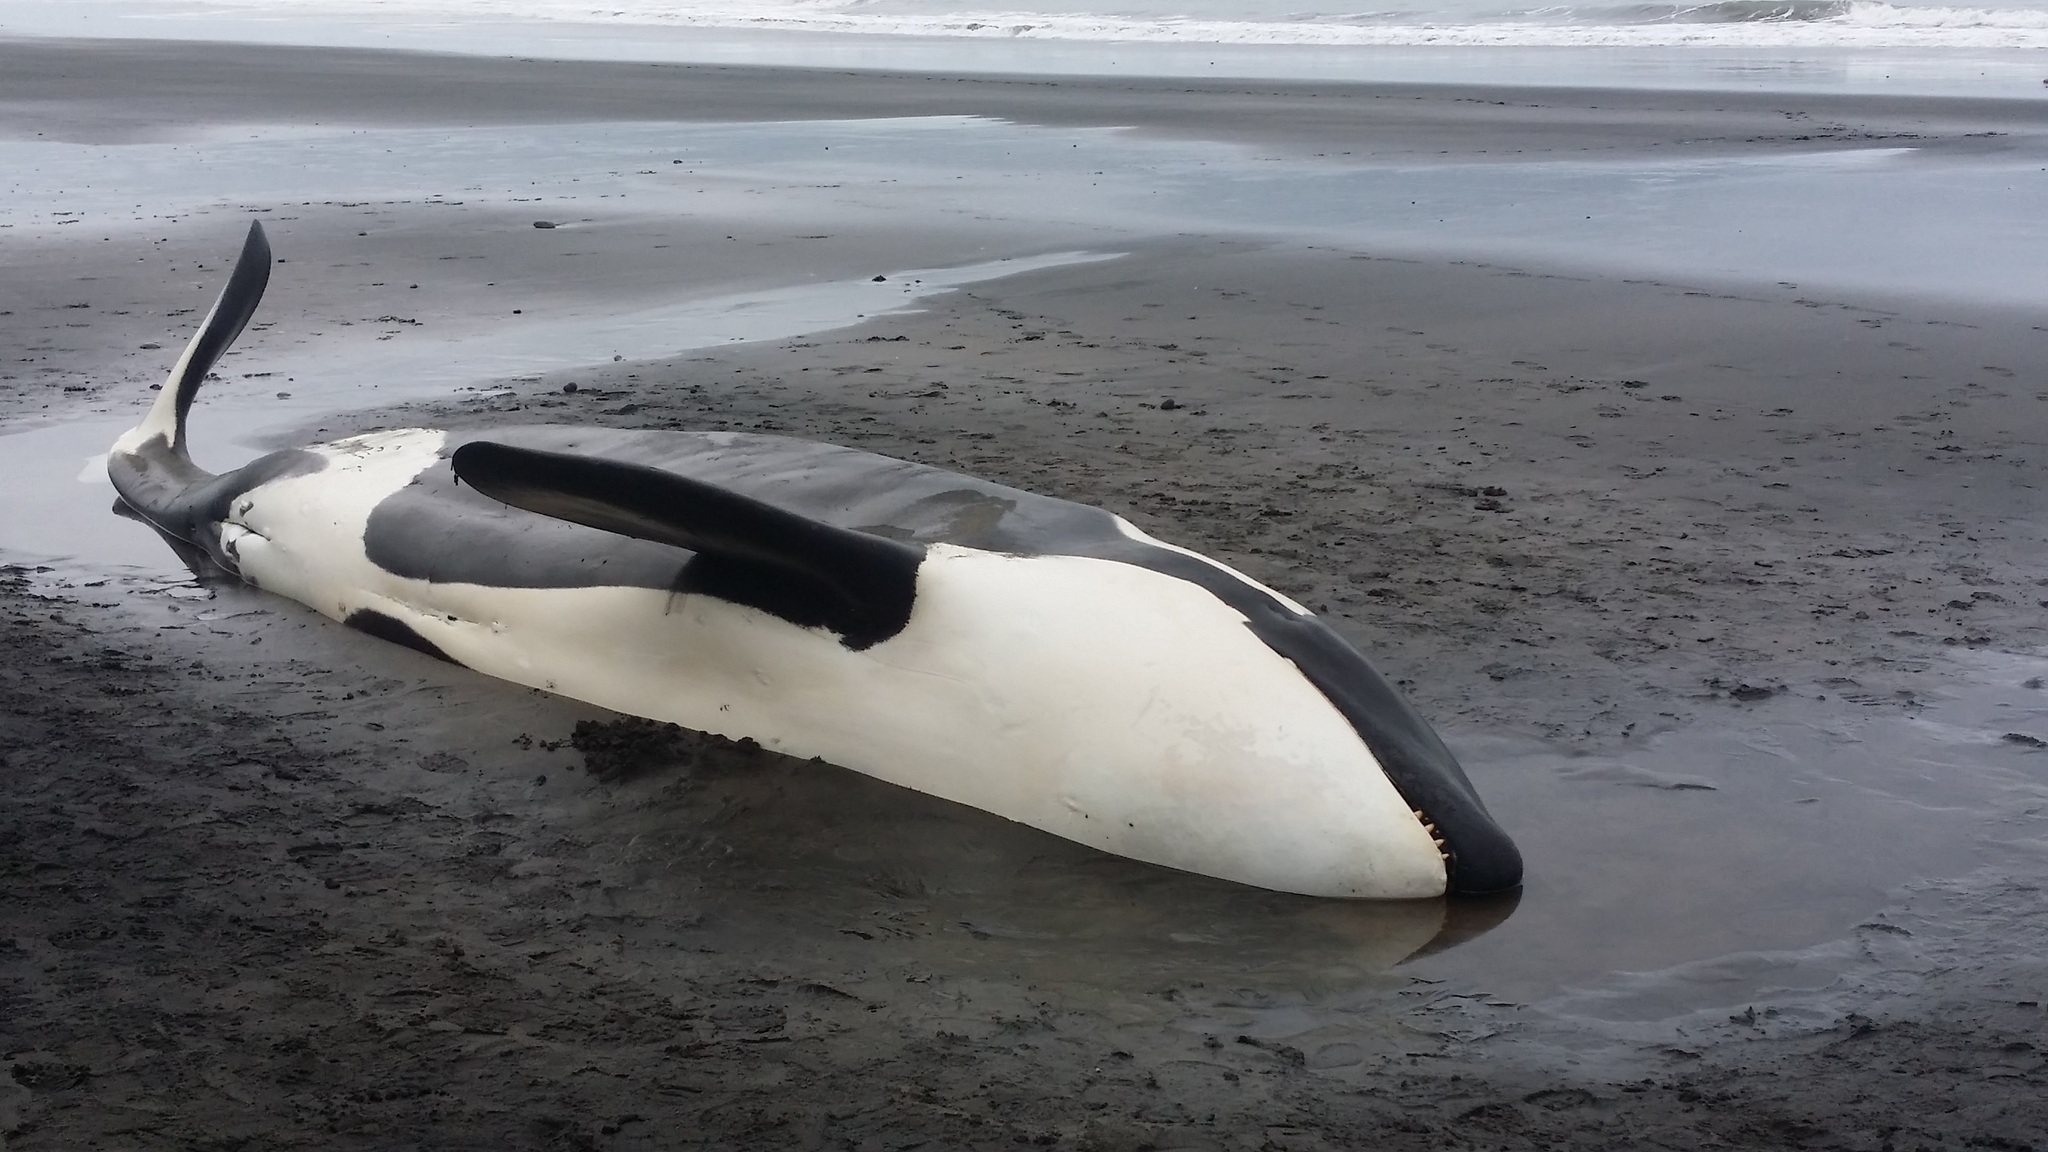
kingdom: Animalia
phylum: Chordata
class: Mammalia
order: Cetacea
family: Delphinidae
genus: Orcinus
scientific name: Orcinus orca
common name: Killer whale
